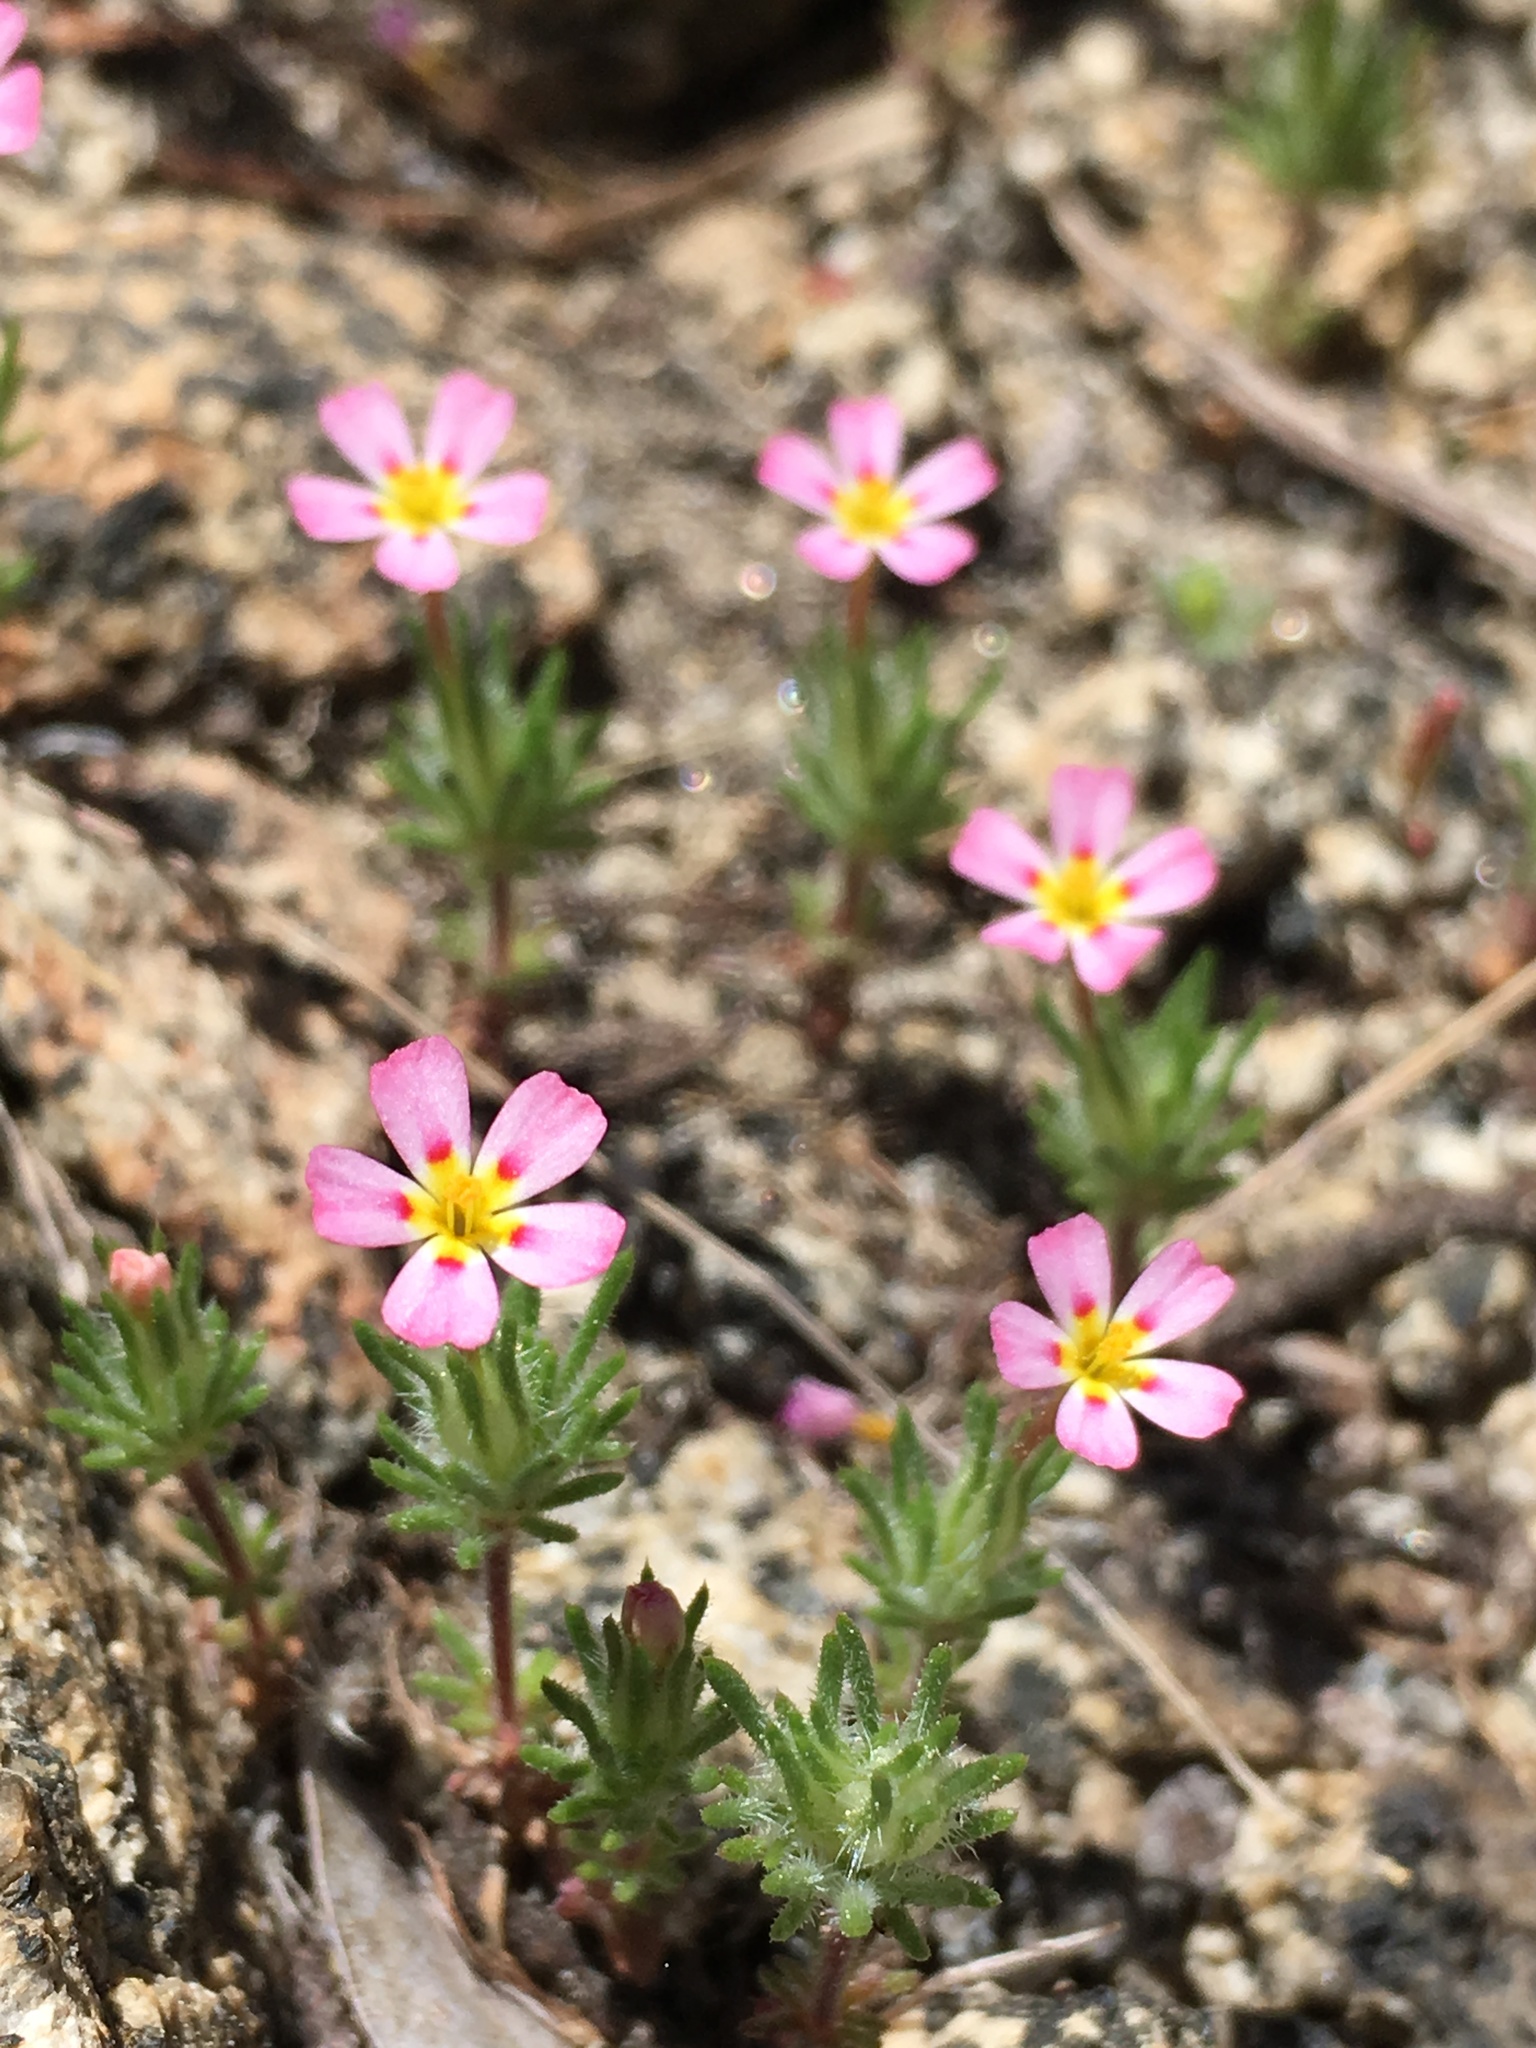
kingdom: Plantae
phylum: Tracheophyta
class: Magnoliopsida
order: Ericales
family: Polemoniaceae
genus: Leptosiphon
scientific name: Leptosiphon ciliatus
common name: Whiskerbrush
